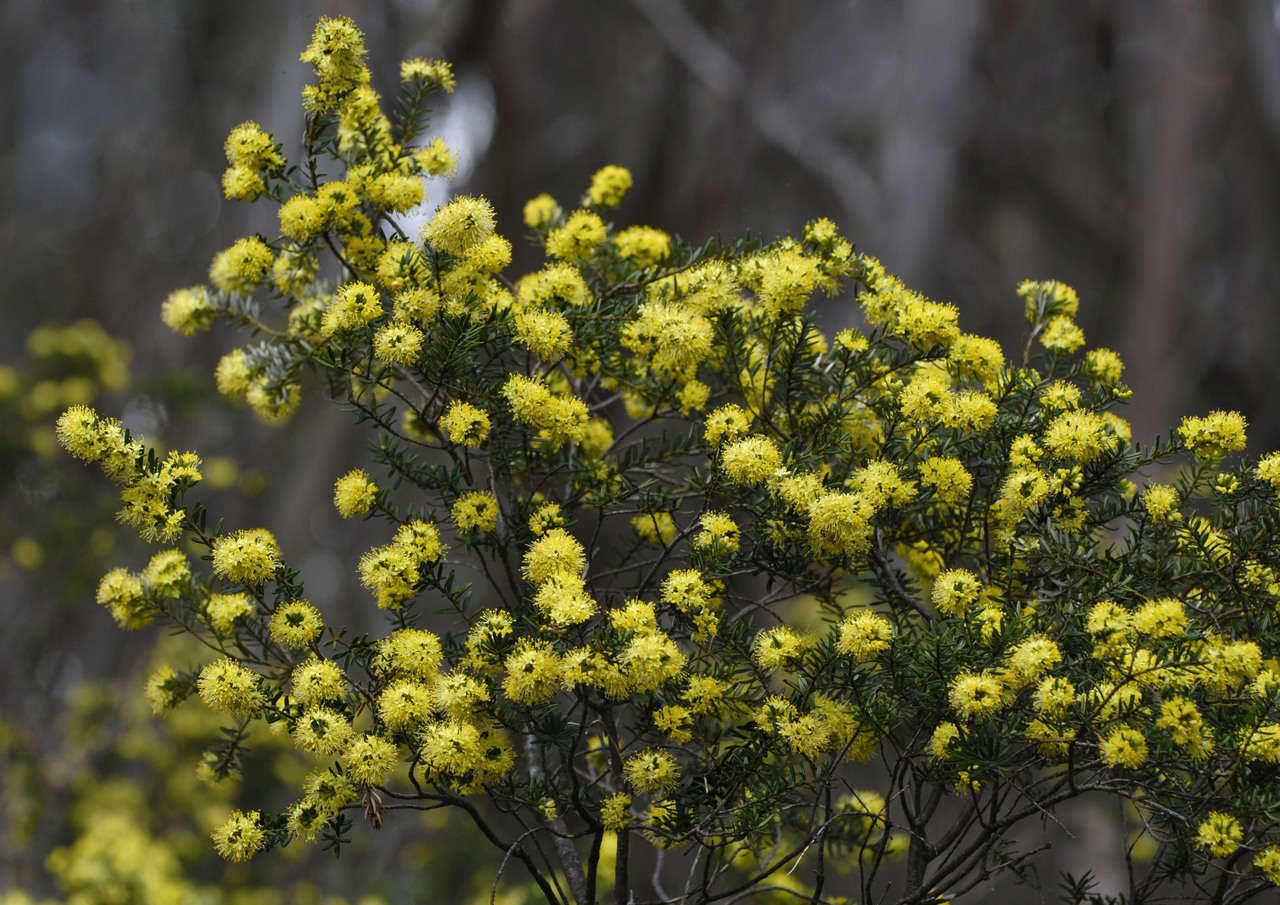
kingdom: Plantae
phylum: Tracheophyta
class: Magnoliopsida
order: Sapindales
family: Rutaceae
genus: Leionema
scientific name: Leionema phylicifolium
